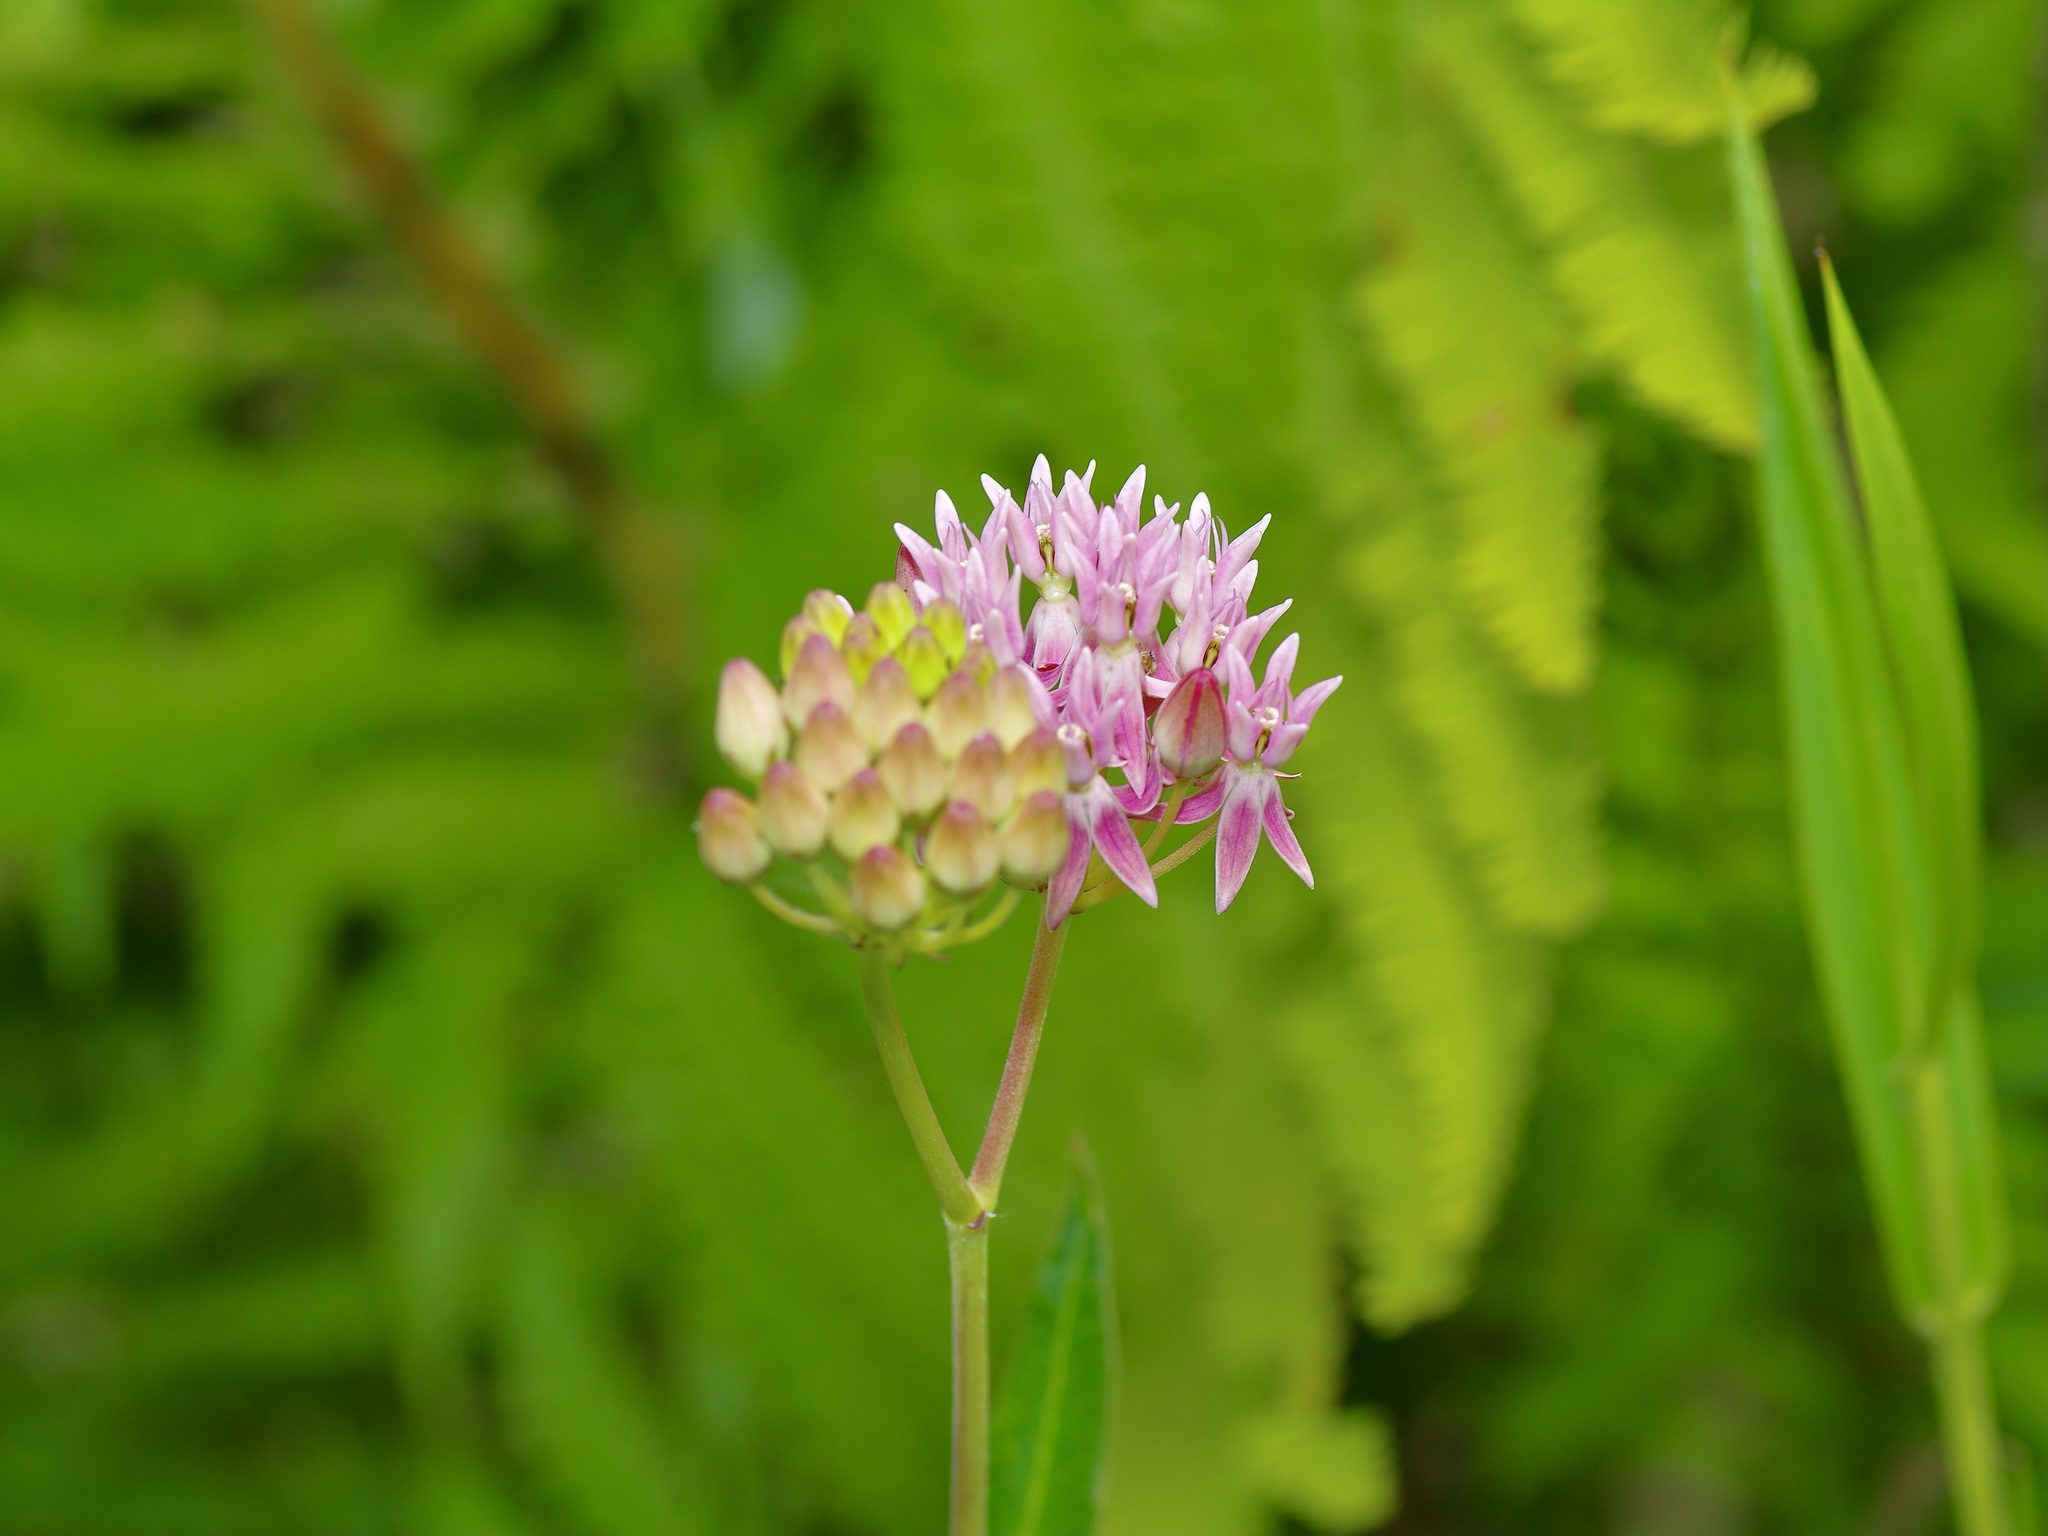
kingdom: Plantae
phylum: Tracheophyta
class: Magnoliopsida
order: Gentianales
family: Apocynaceae
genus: Asclepias
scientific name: Asclepias rubra
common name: Red milkweed
